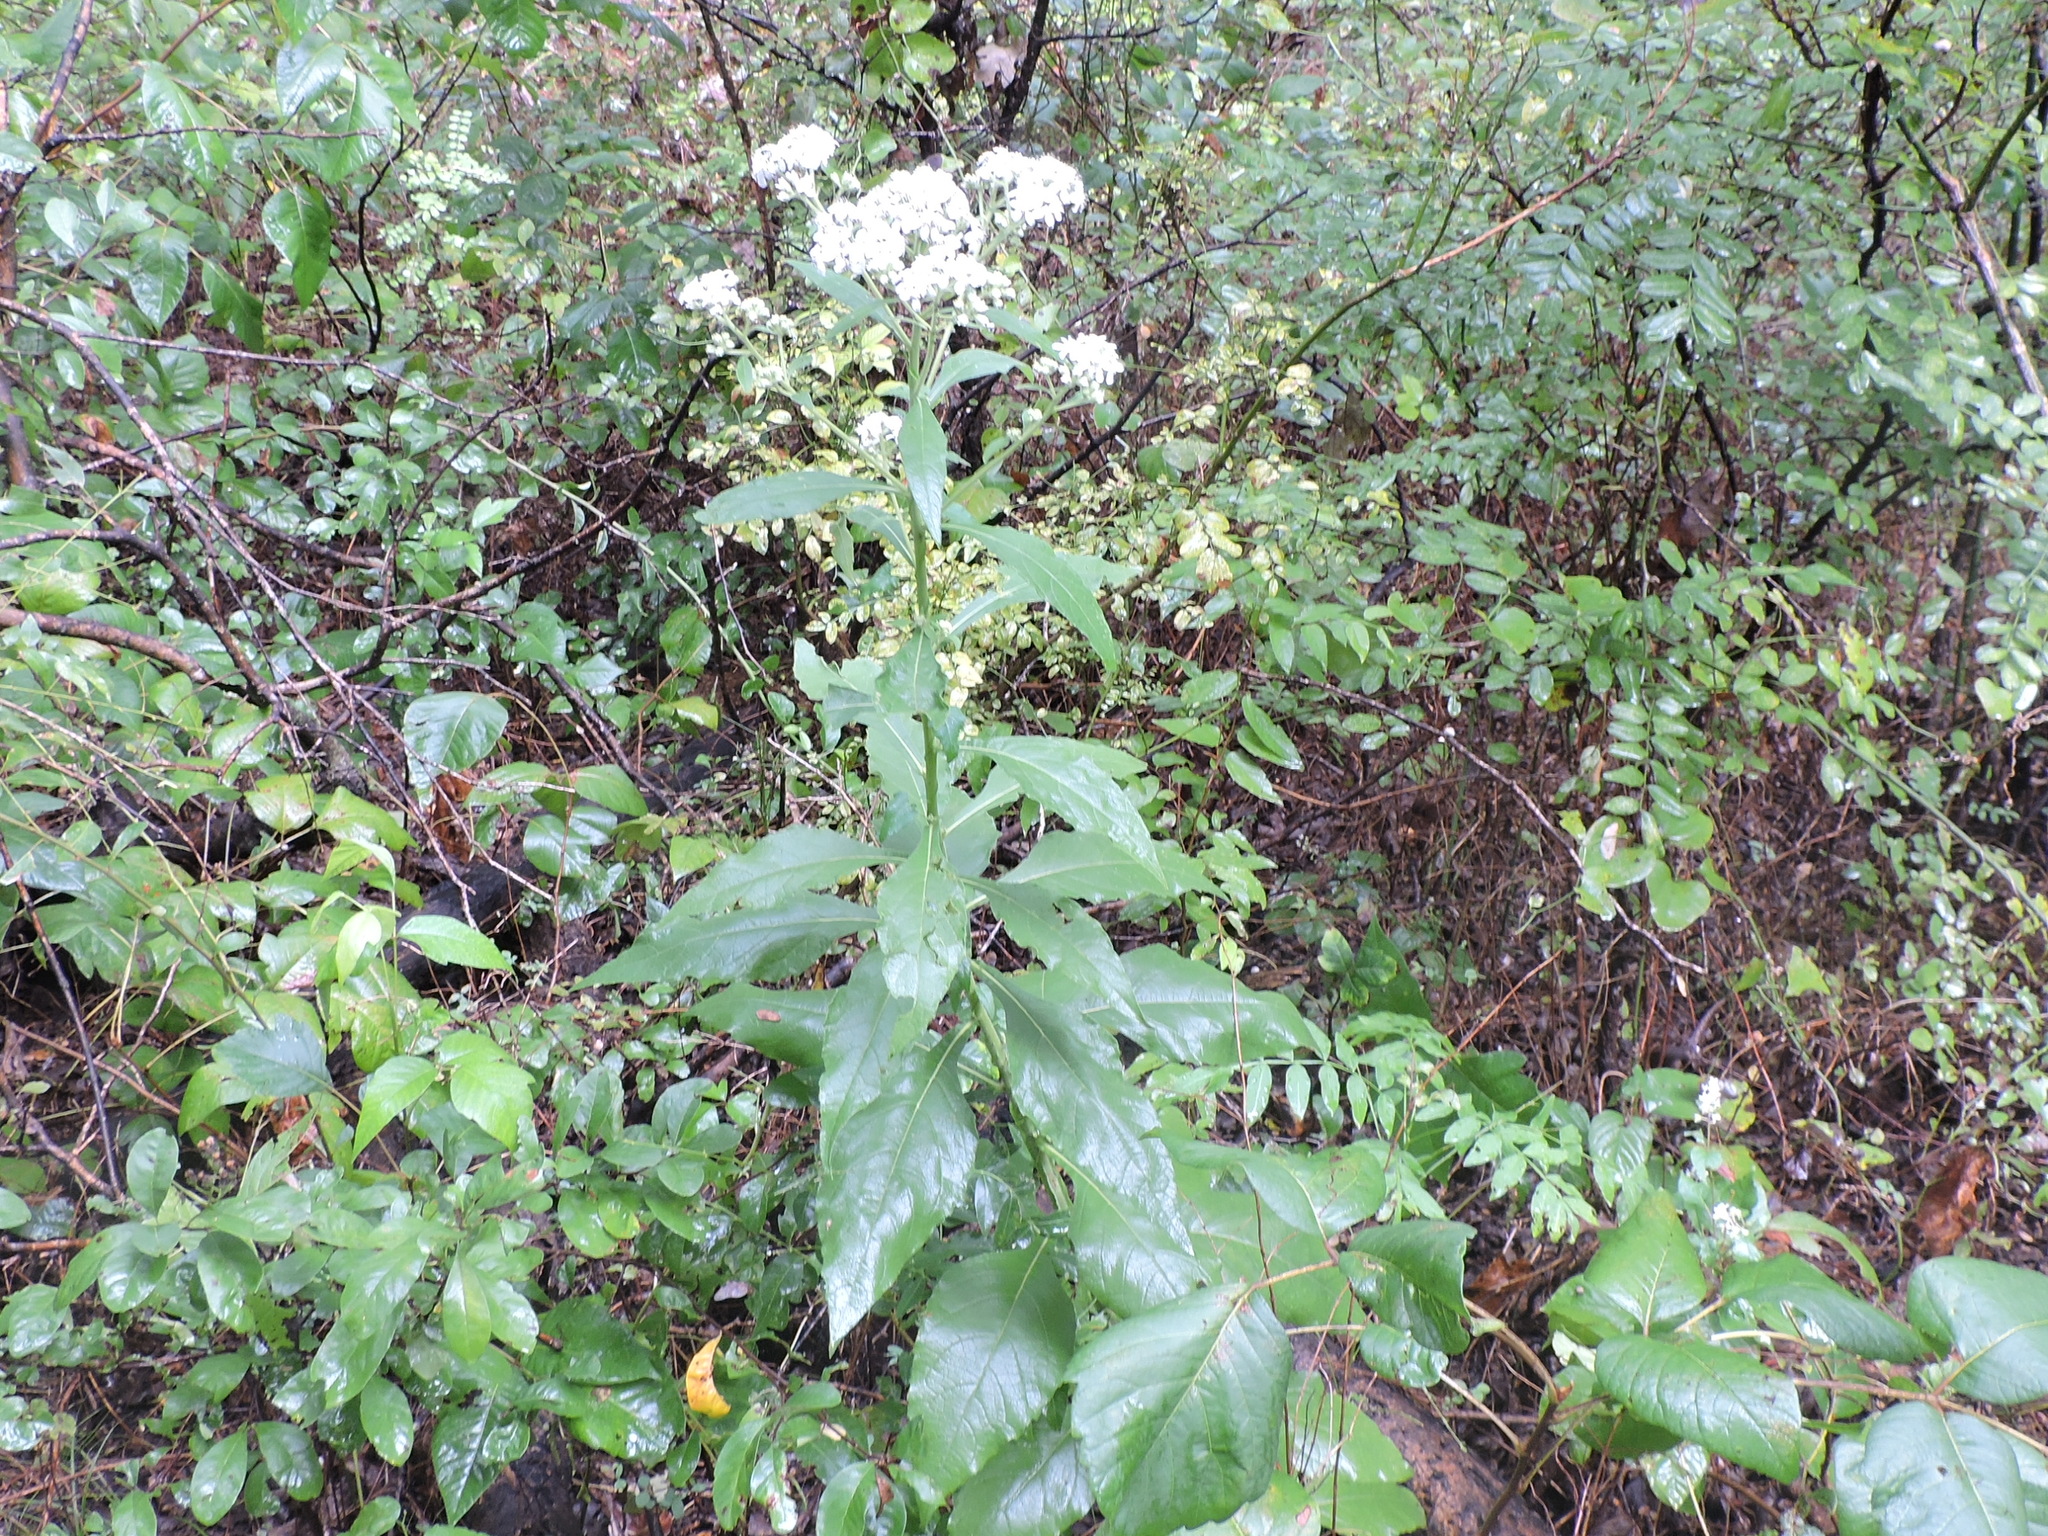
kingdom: Plantae
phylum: Tracheophyta
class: Magnoliopsida
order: Asterales
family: Asteraceae
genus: Verbesina
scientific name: Verbesina virginica
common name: Frostweed
